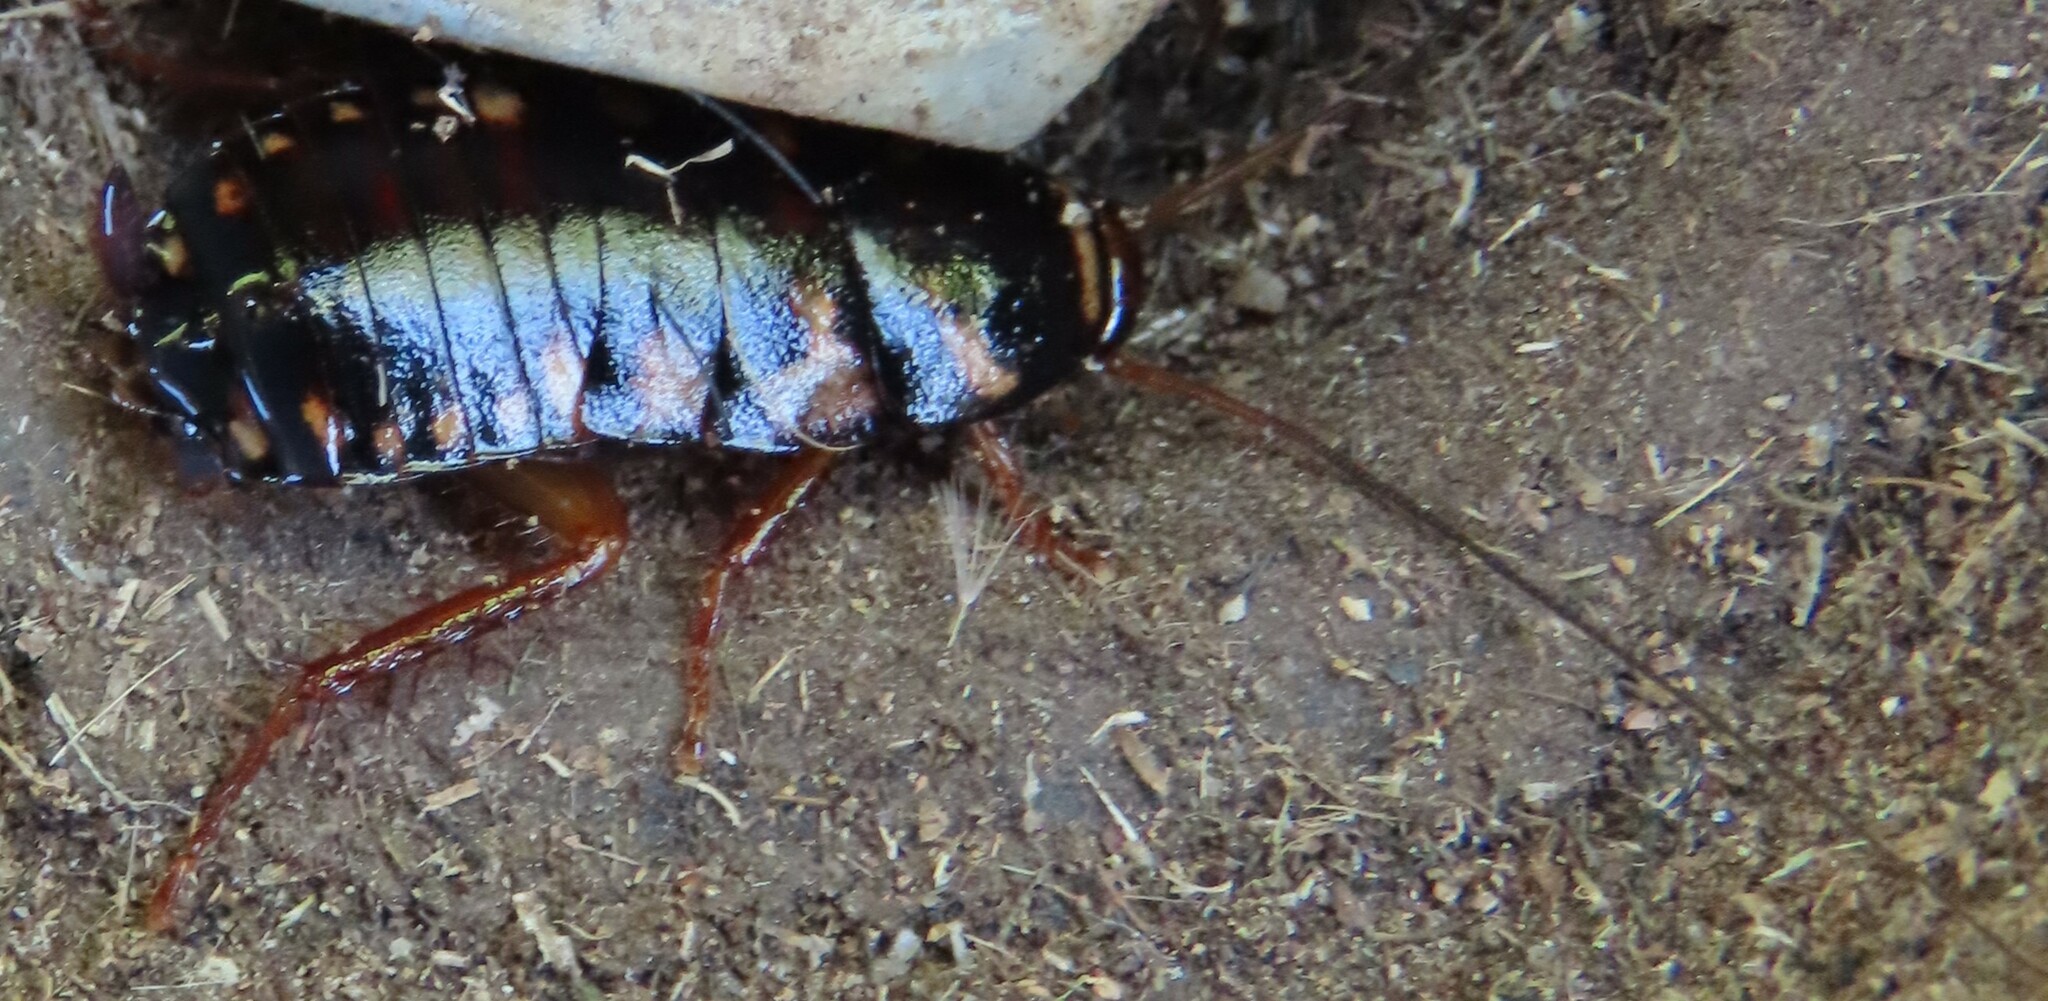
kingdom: Animalia
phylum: Arthropoda
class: Insecta
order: Blattodea
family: Blattidae
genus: Periplaneta
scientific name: Periplaneta australasiae
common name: Australian cockroach
